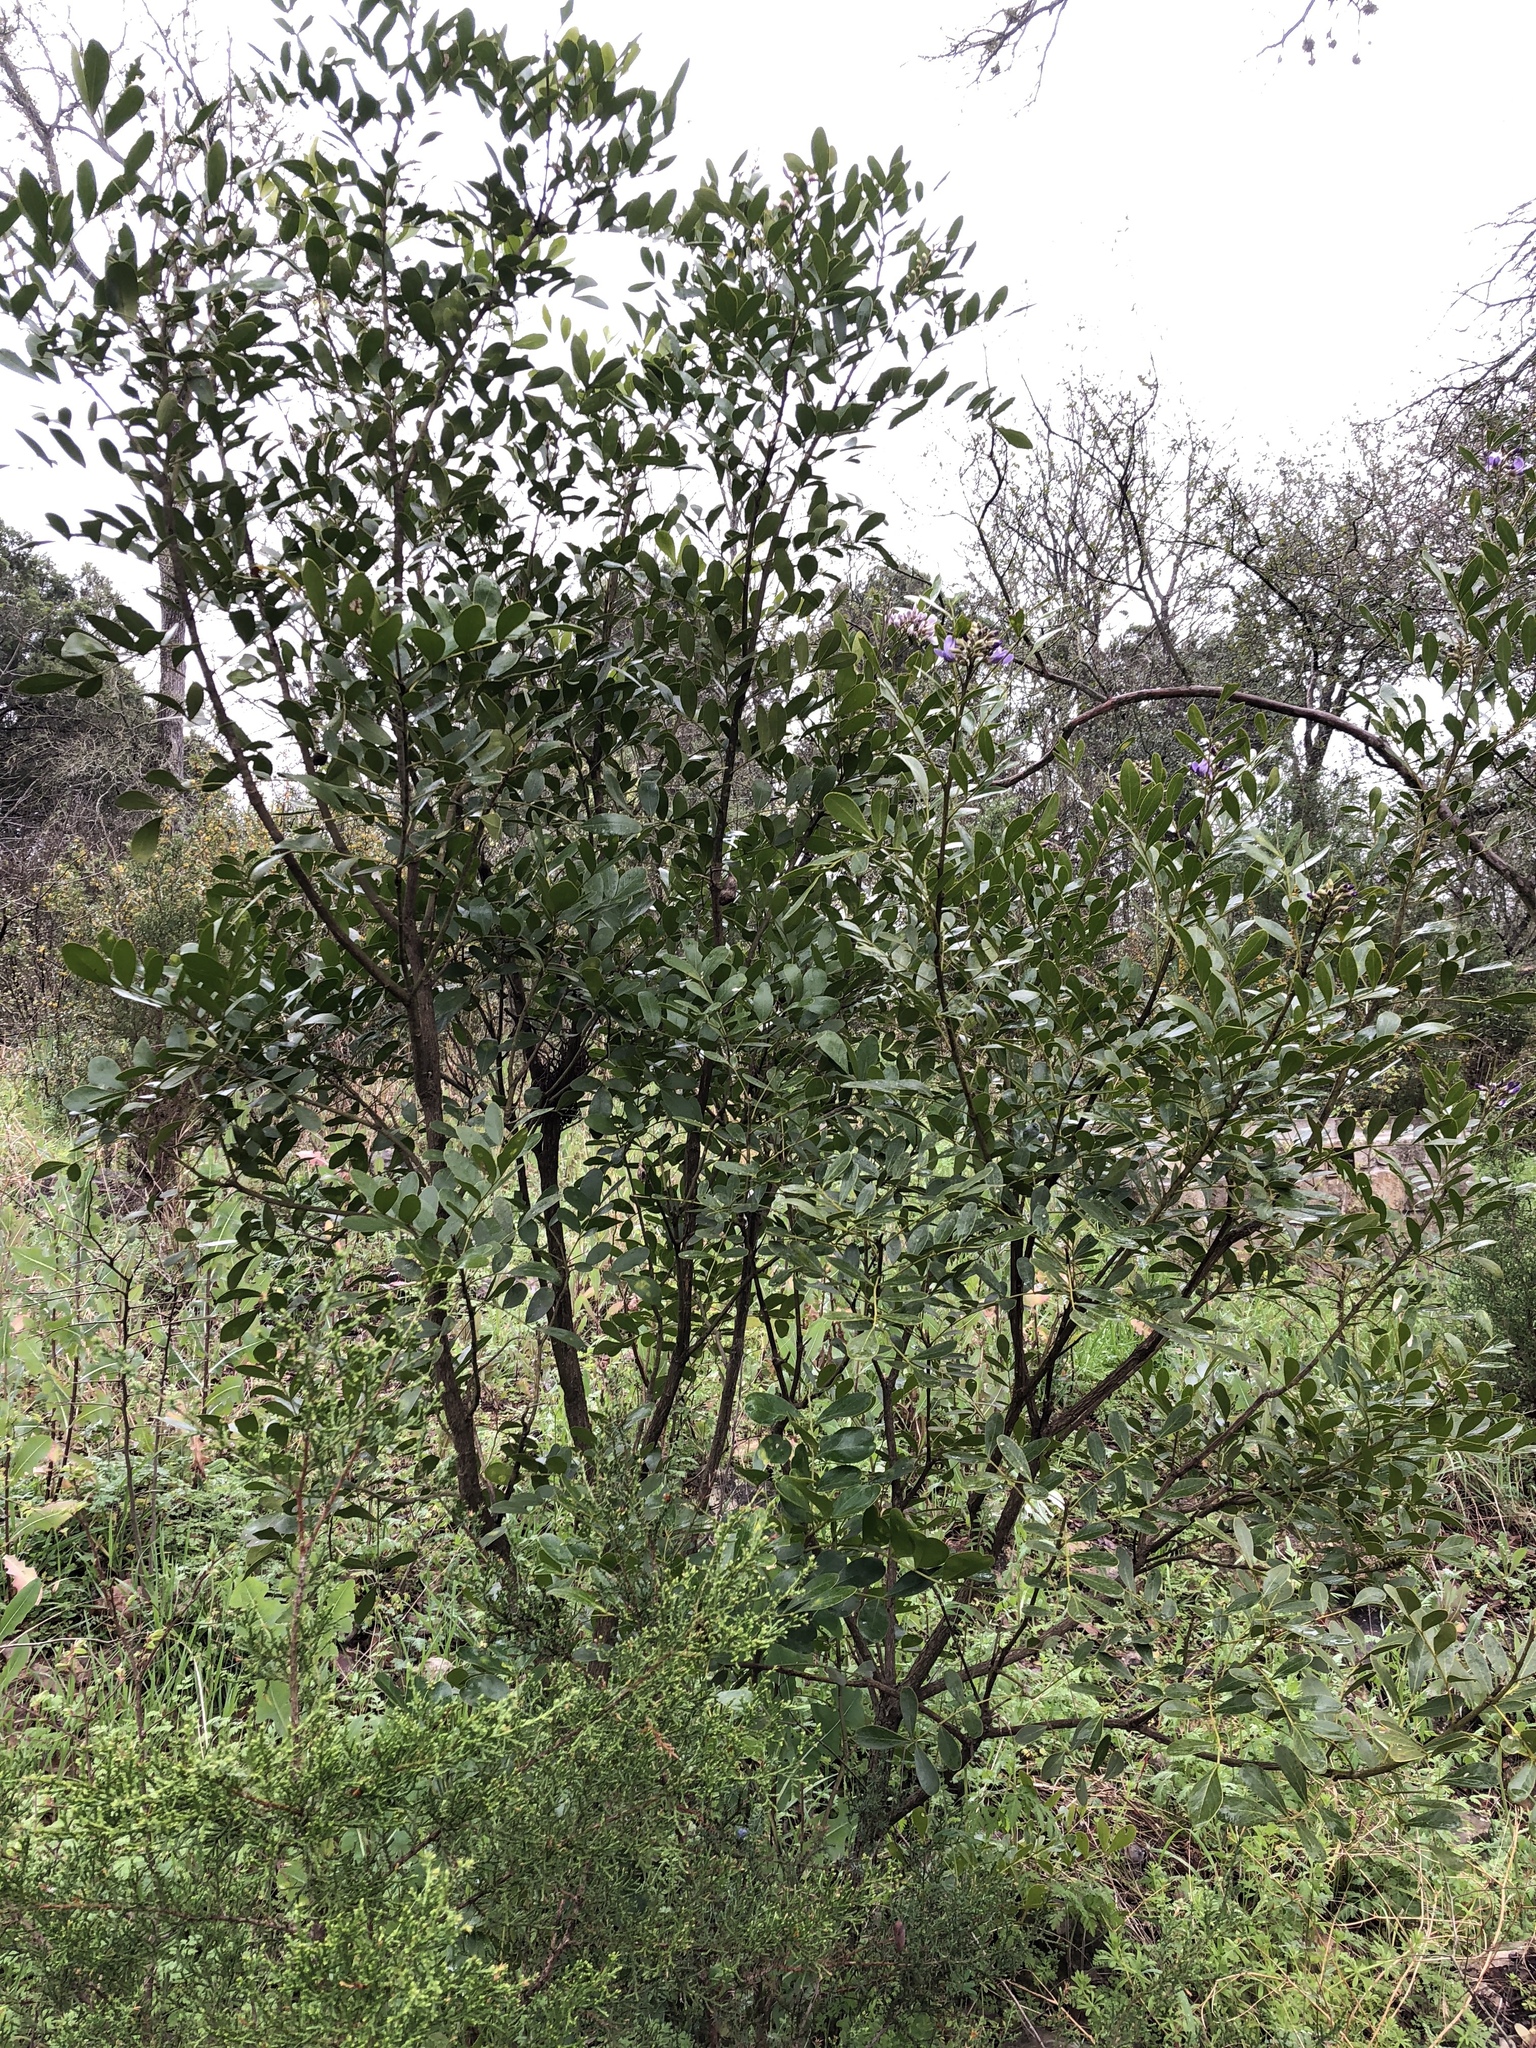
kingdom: Plantae
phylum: Tracheophyta
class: Magnoliopsida
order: Fabales
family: Fabaceae
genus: Dermatophyllum
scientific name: Dermatophyllum secundiflorum
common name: Texas-mountain-laurel
